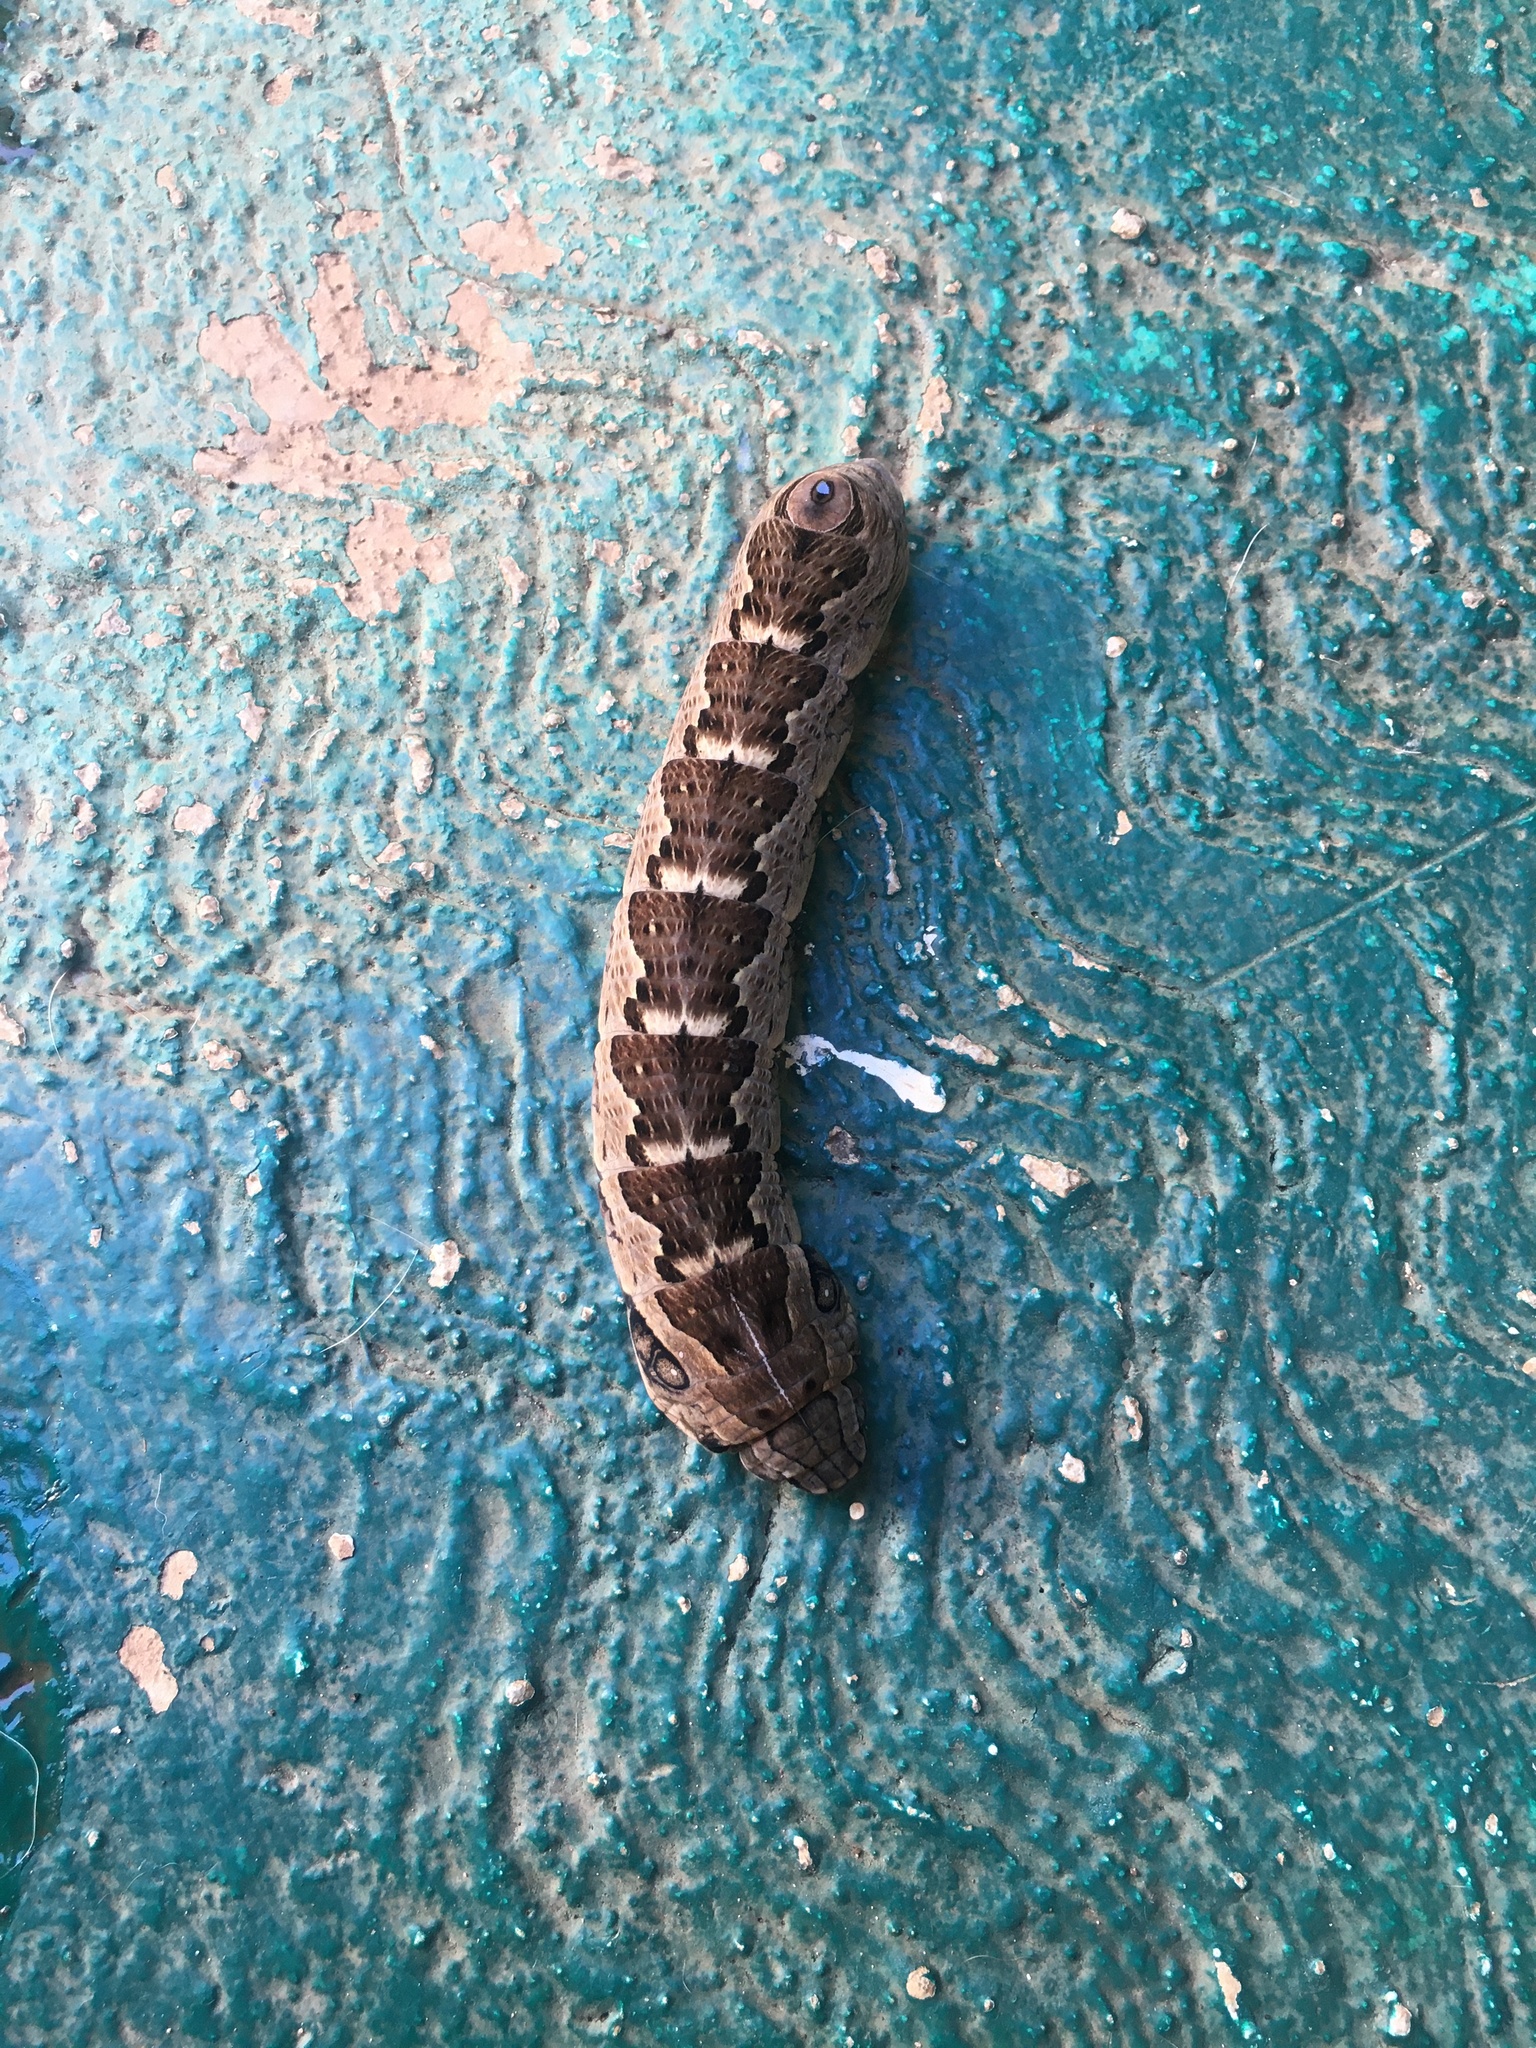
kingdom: Animalia
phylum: Arthropoda
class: Insecta
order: Lepidoptera
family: Sphingidae
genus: Eumorpha
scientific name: Eumorpha labruscae
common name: Gaudy sphinx
